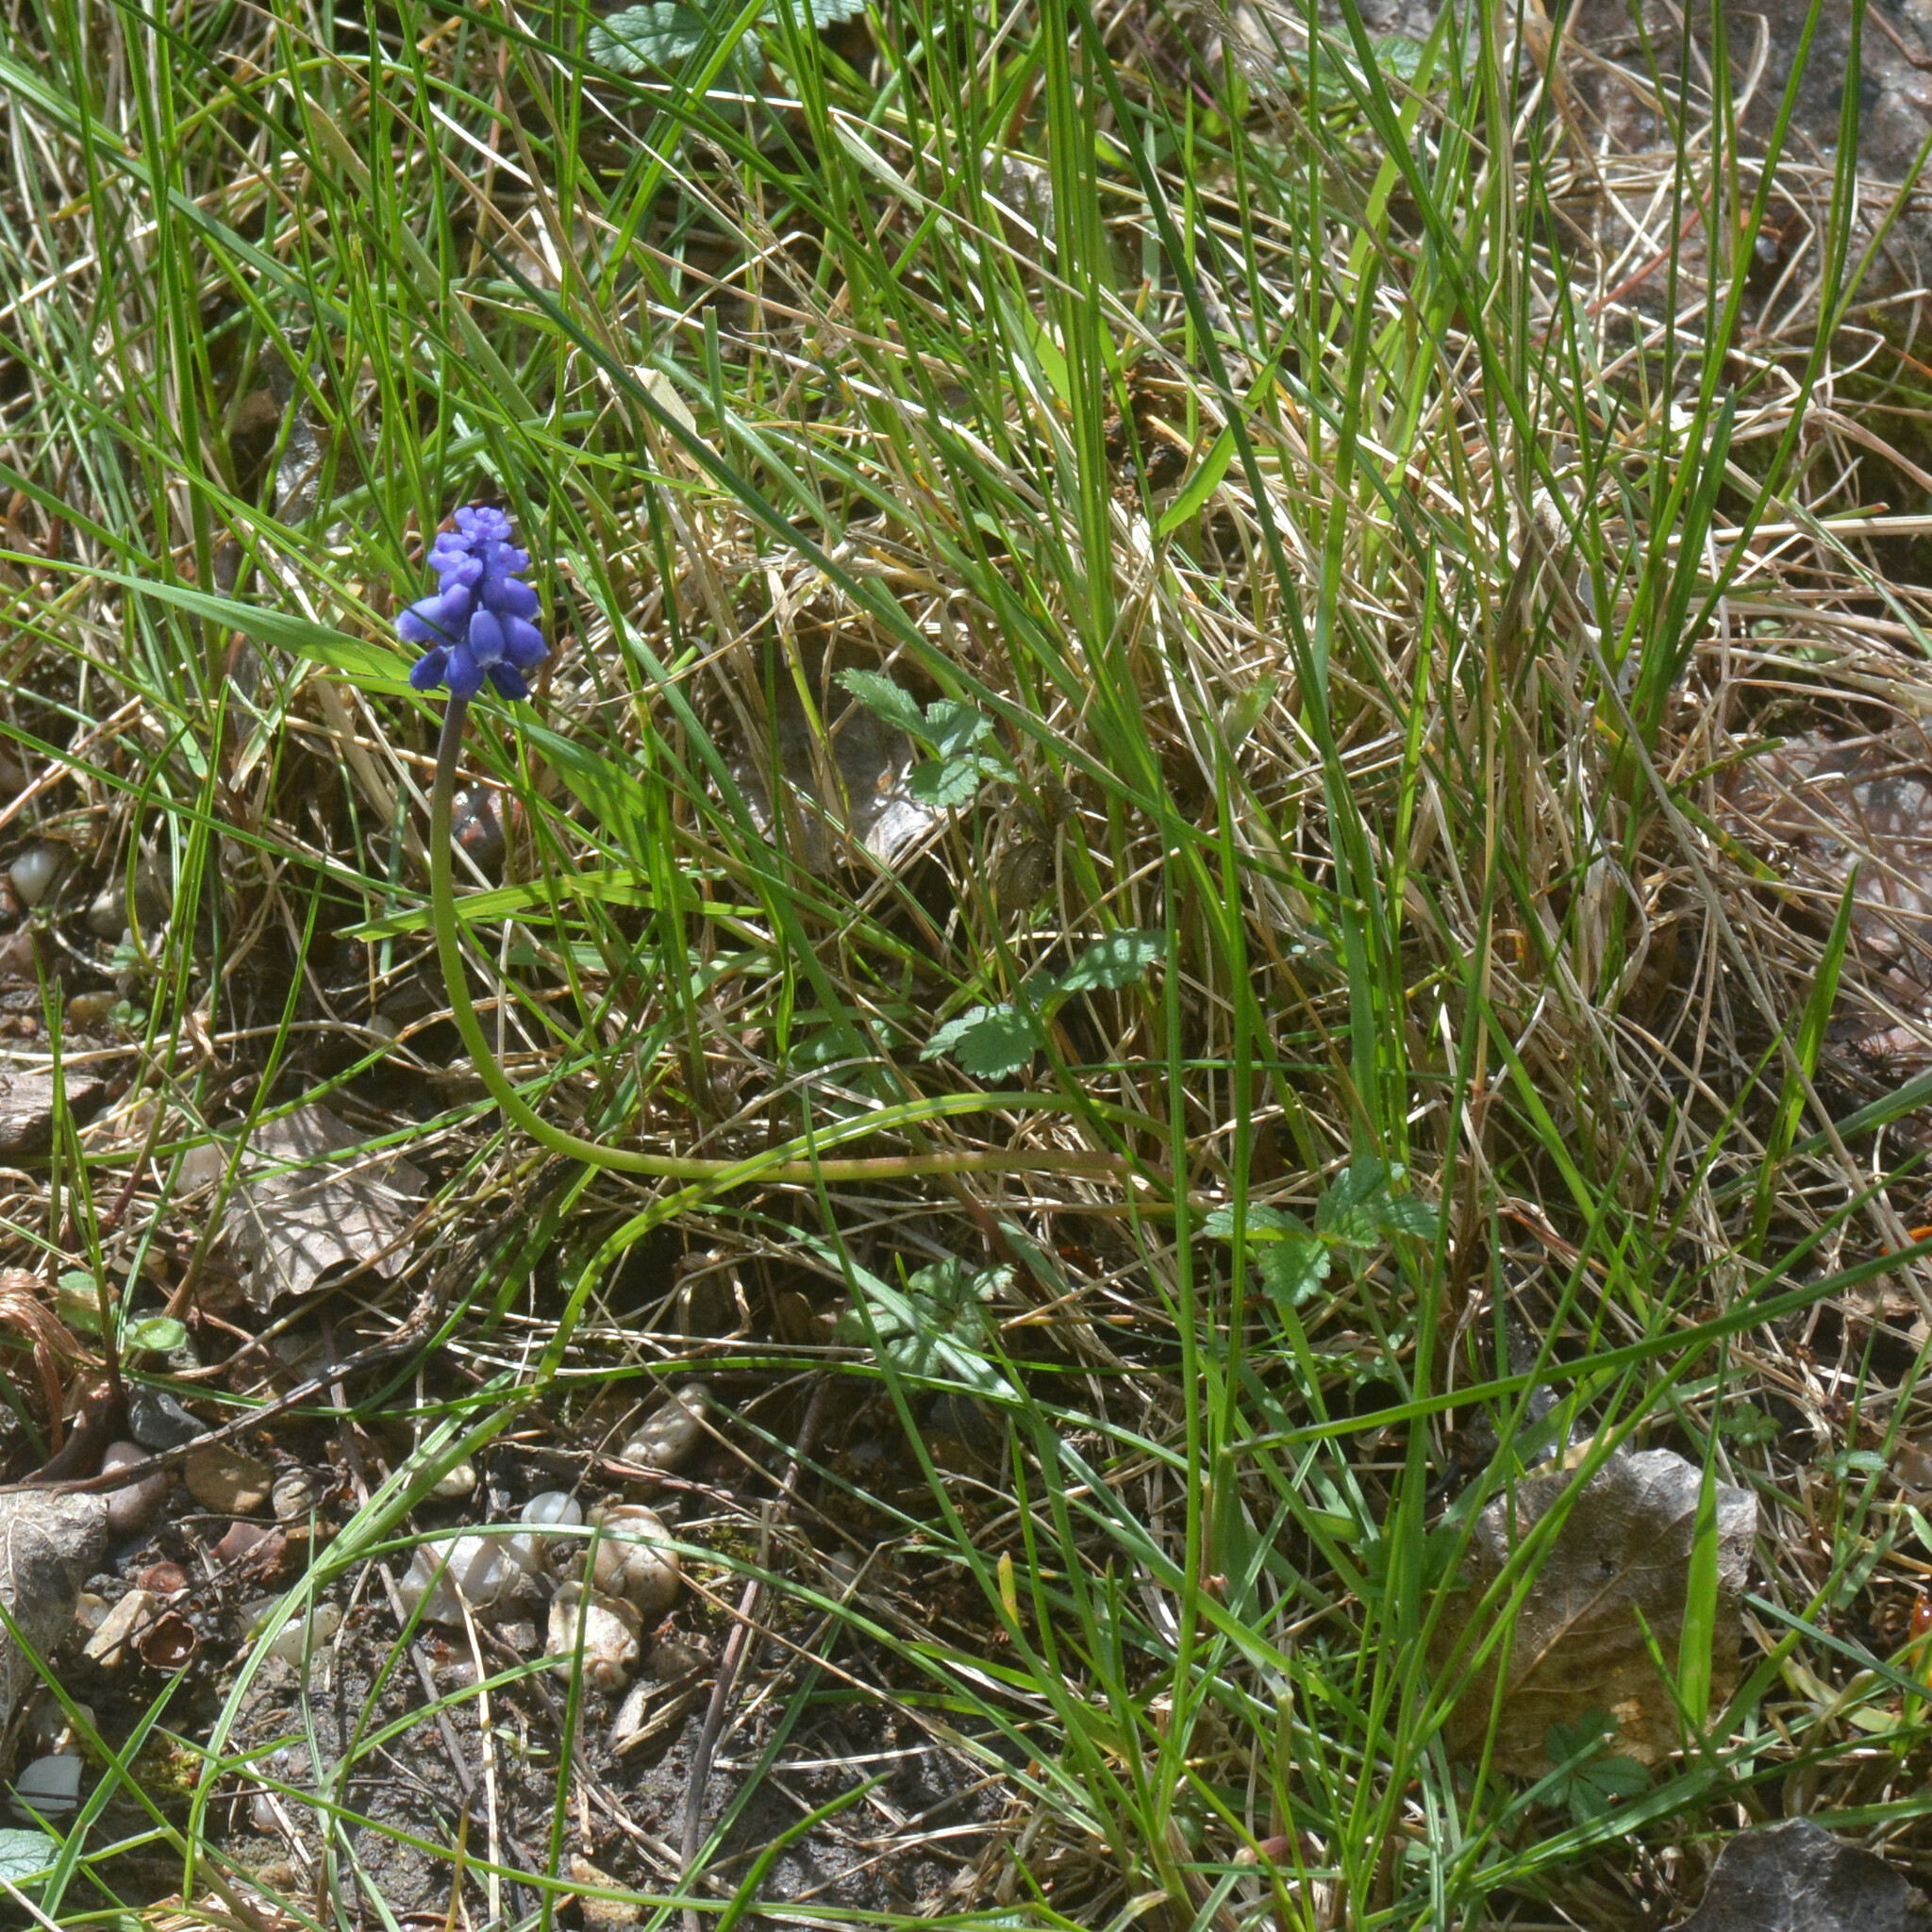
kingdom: Plantae
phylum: Tracheophyta
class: Liliopsida
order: Asparagales
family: Asparagaceae
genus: Muscari
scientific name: Muscari neglectum
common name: Grape-hyacinth
